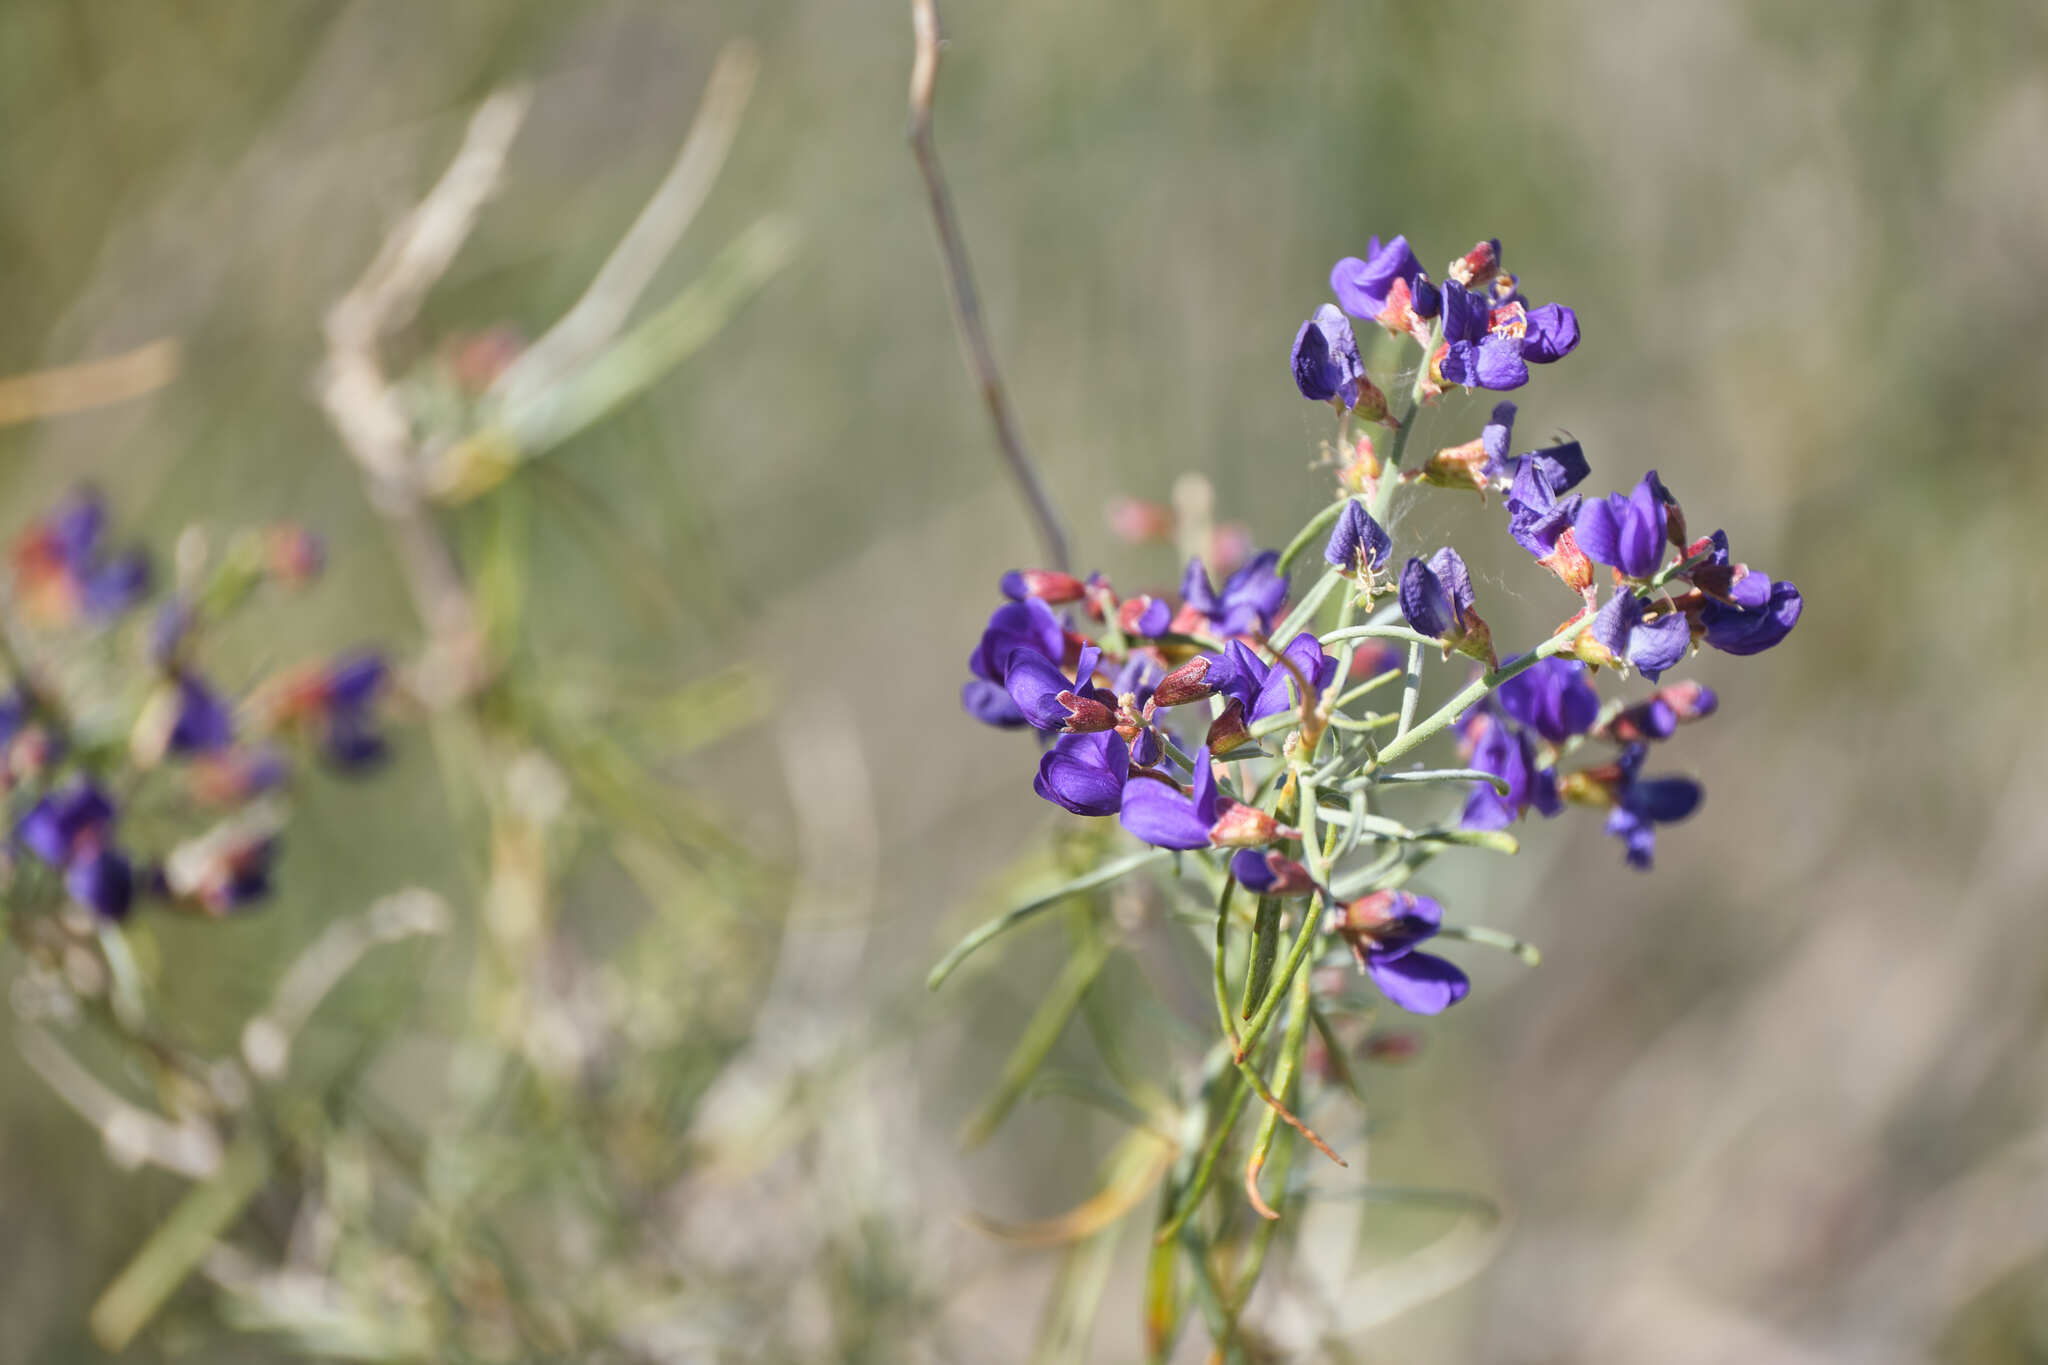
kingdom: Plantae
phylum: Tracheophyta
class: Magnoliopsida
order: Fabales
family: Fabaceae
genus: Psorothamnus
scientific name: Psorothamnus schottii
